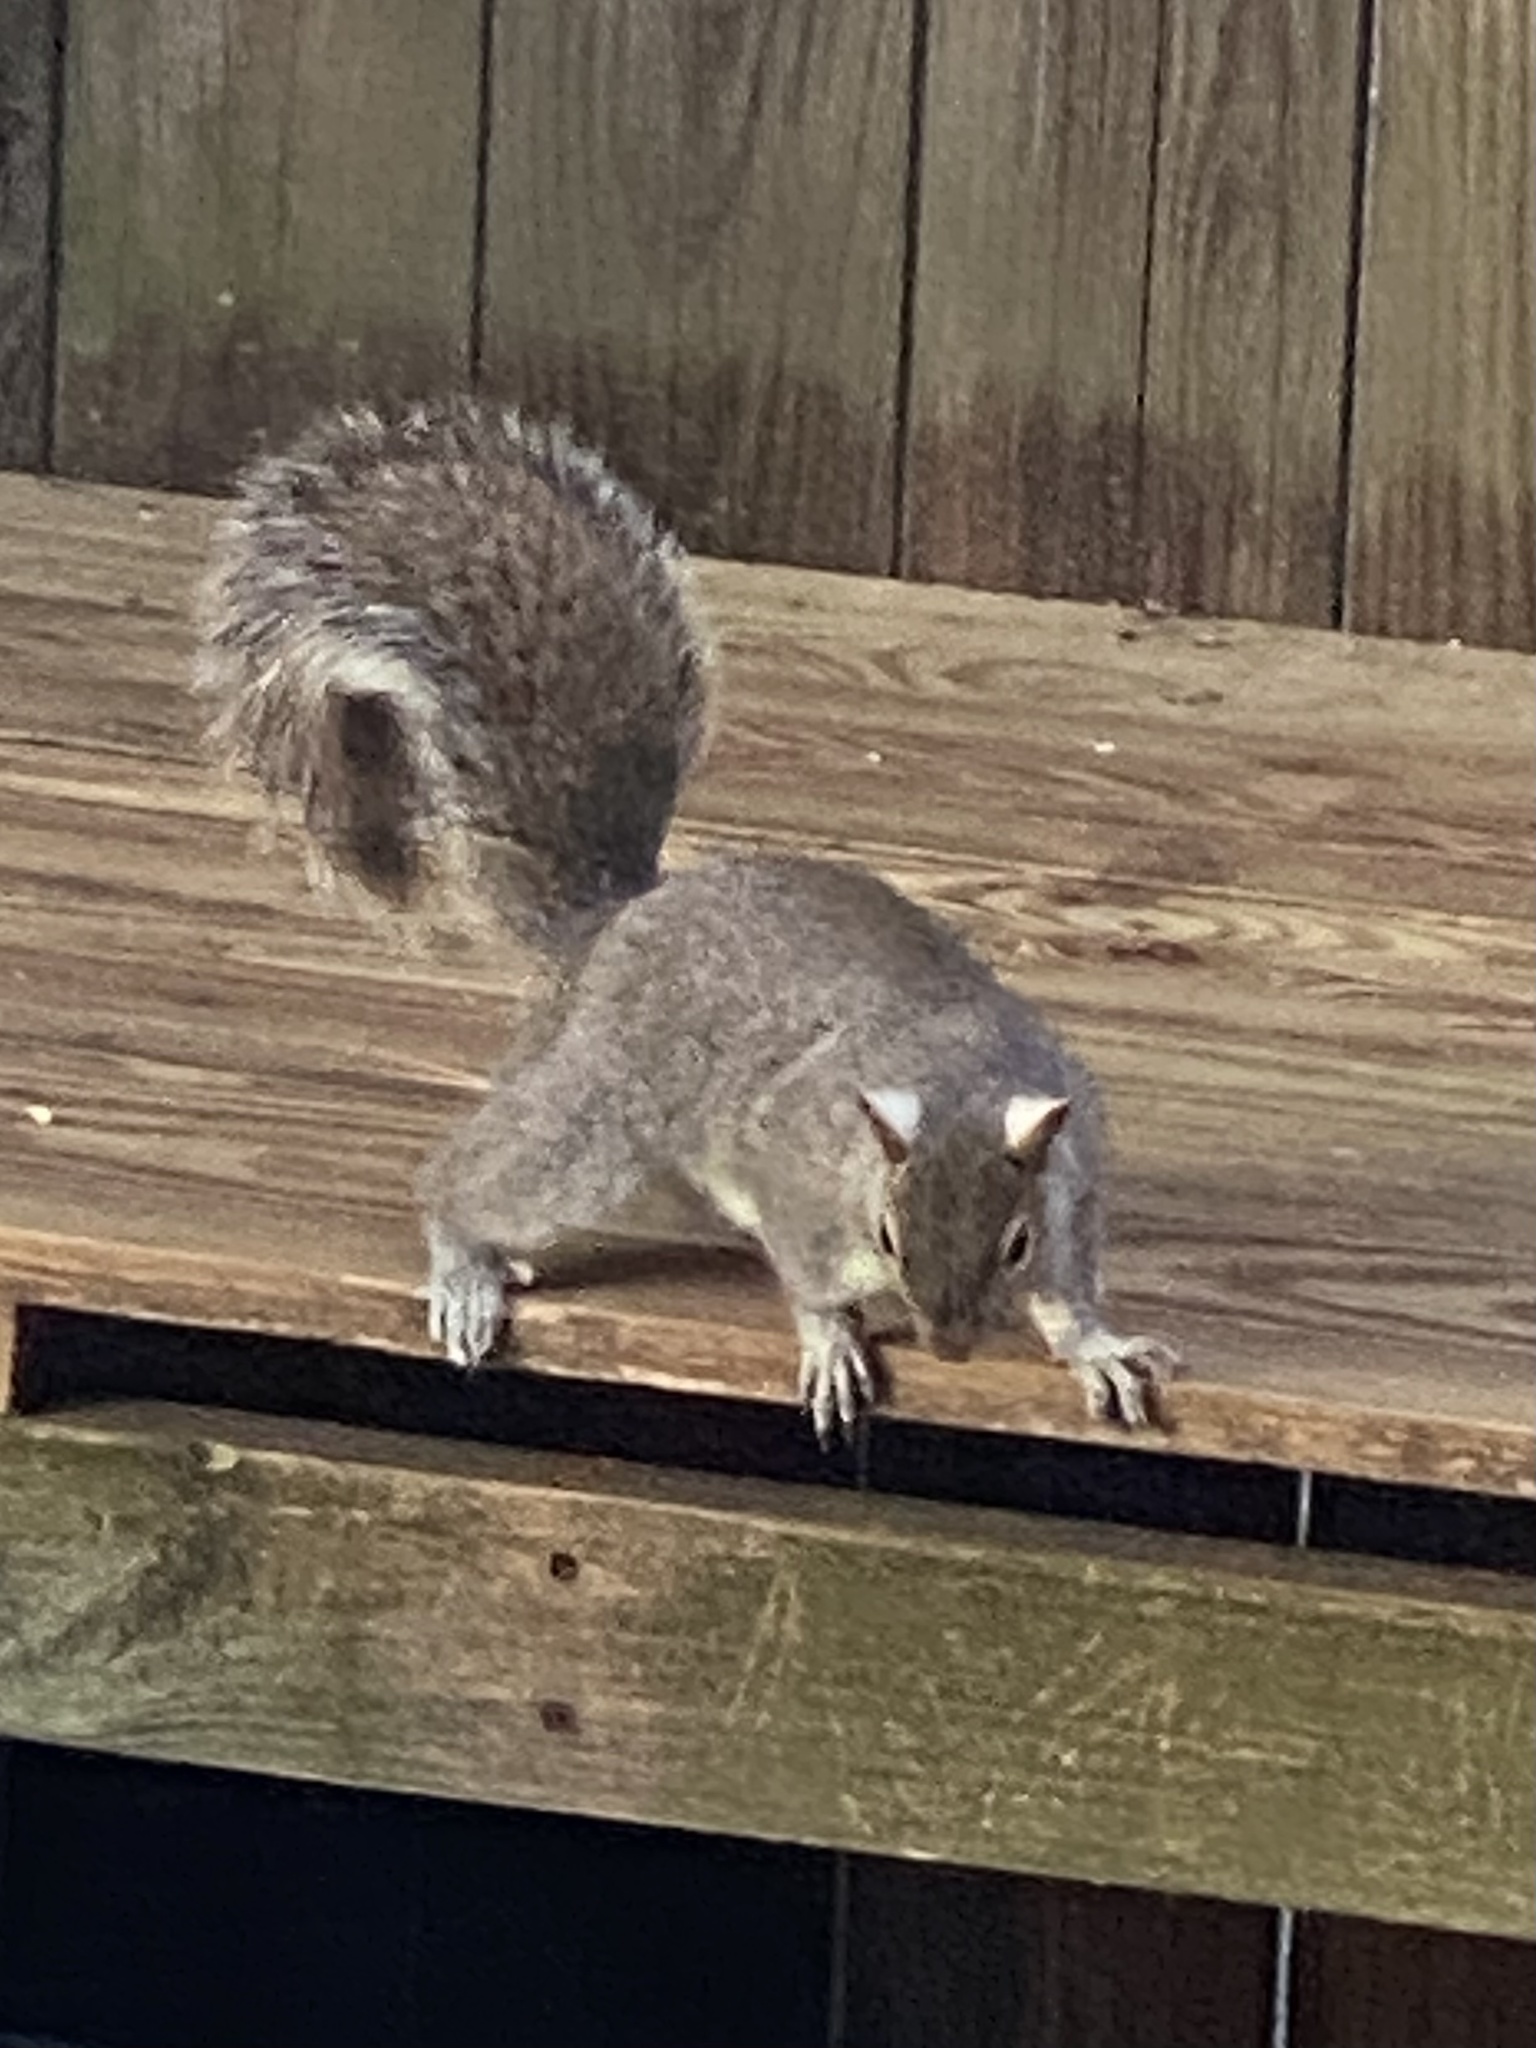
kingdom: Animalia
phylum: Chordata
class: Mammalia
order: Rodentia
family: Sciuridae
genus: Sciurus
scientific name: Sciurus carolinensis
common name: Eastern gray squirrel
